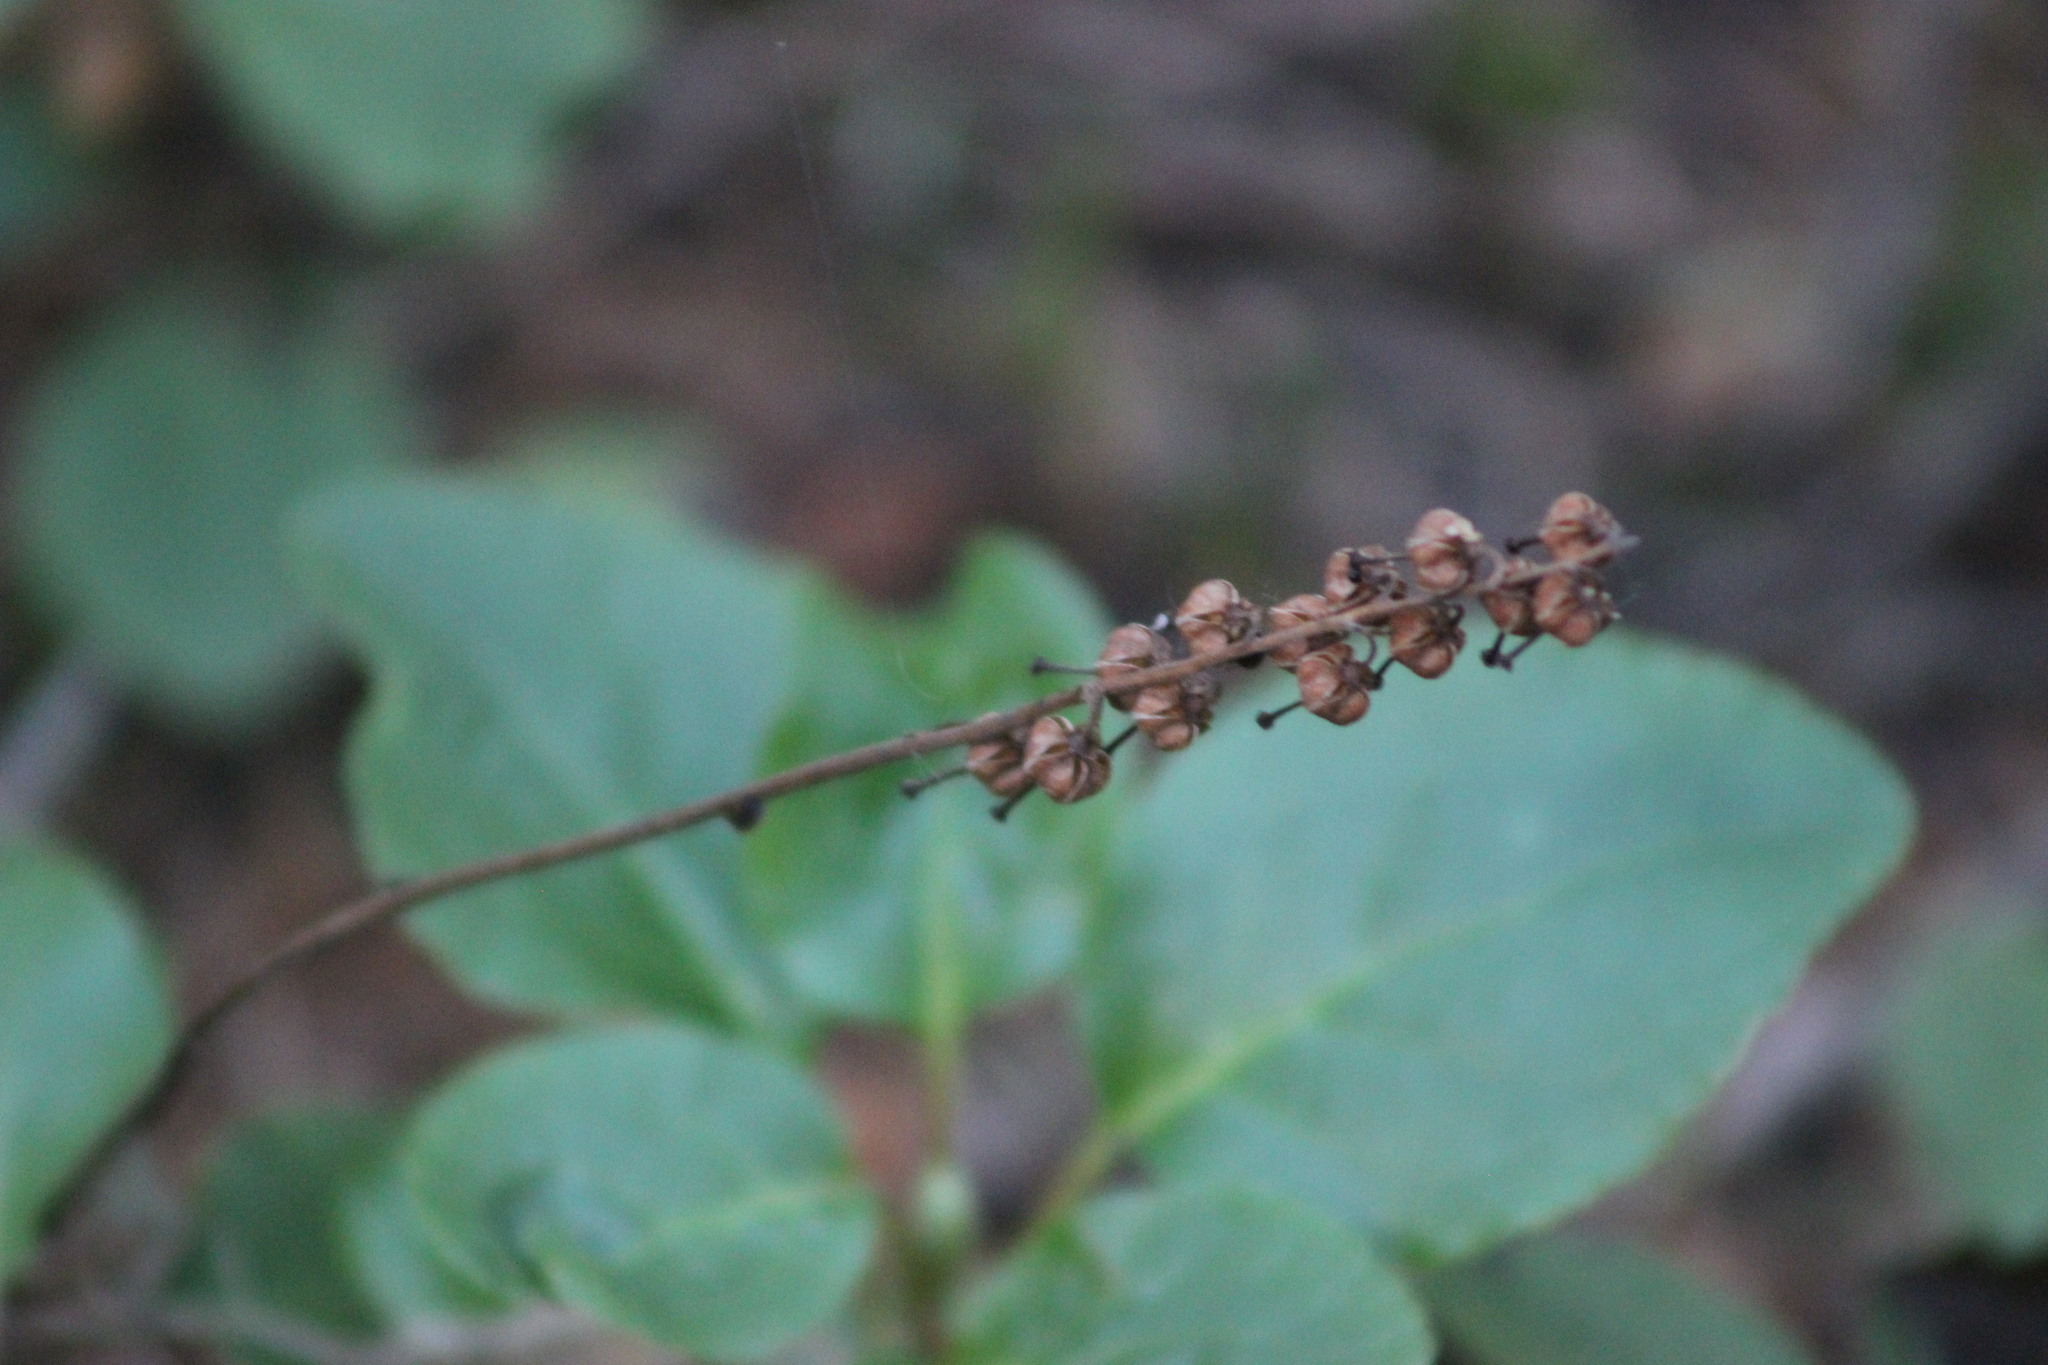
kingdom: Plantae
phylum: Tracheophyta
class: Magnoliopsida
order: Ericales
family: Ericaceae
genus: Orthilia
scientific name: Orthilia secunda
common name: One-sided orthilia
